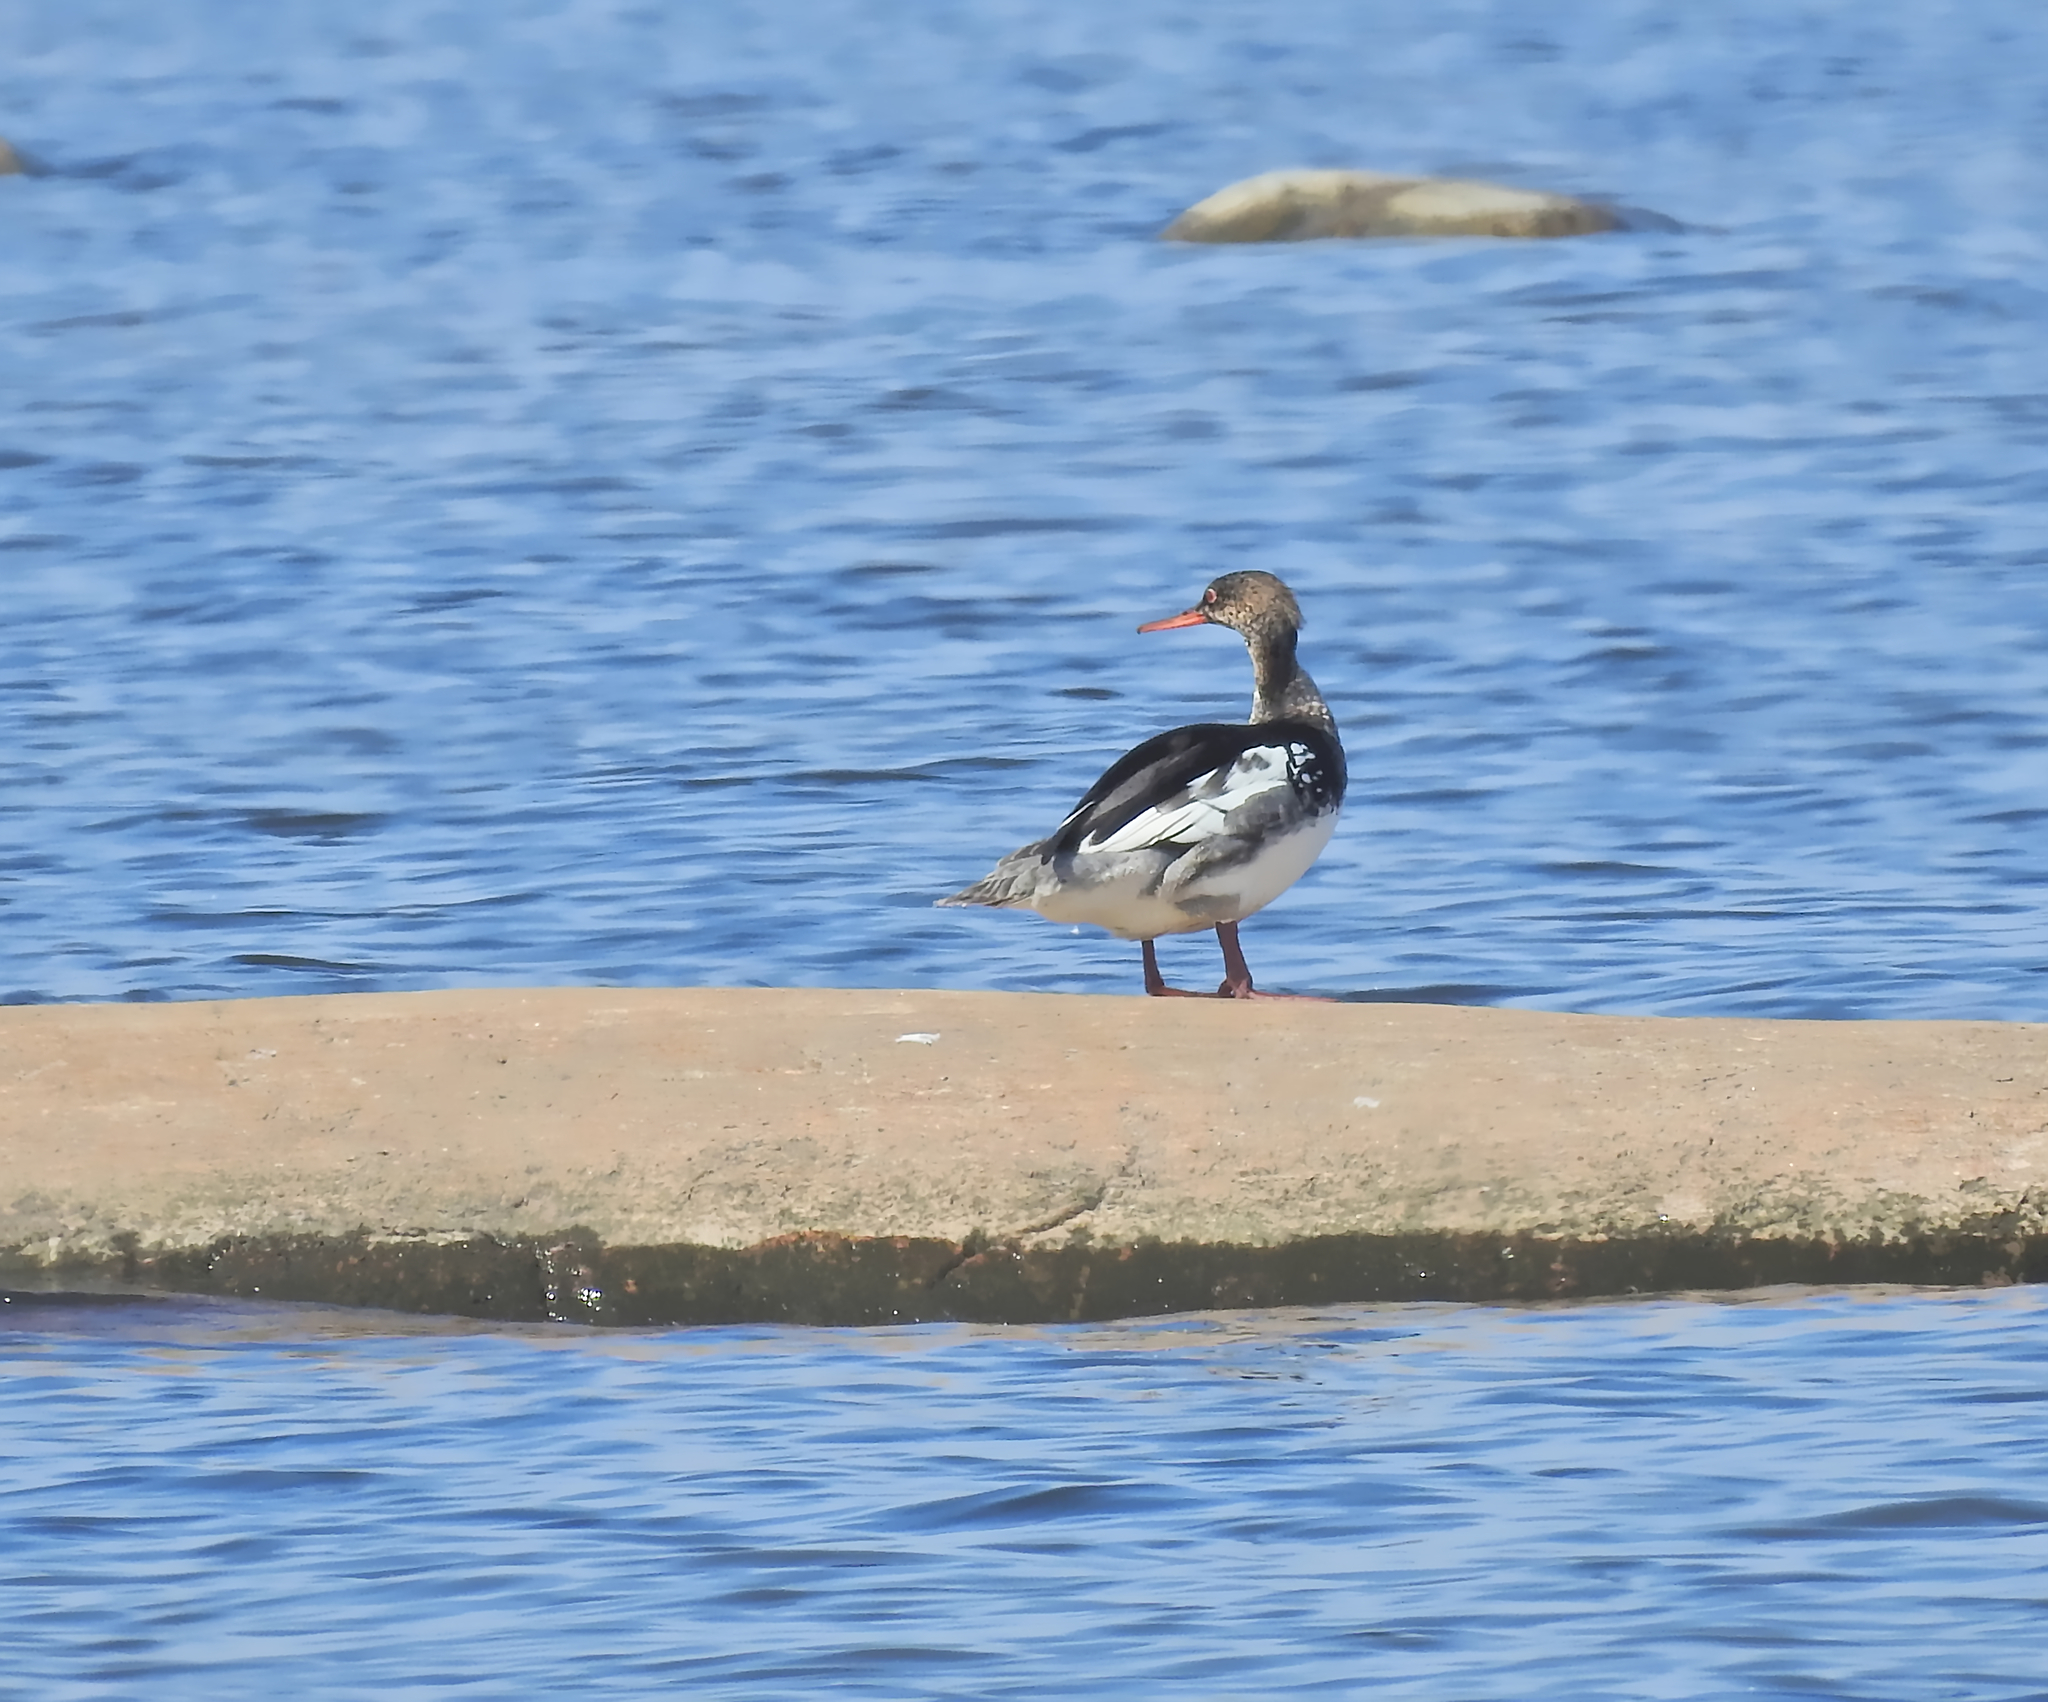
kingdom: Animalia
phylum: Chordata
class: Aves
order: Anseriformes
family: Anatidae
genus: Mergus
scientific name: Mergus serrator
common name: Red-breasted merganser
